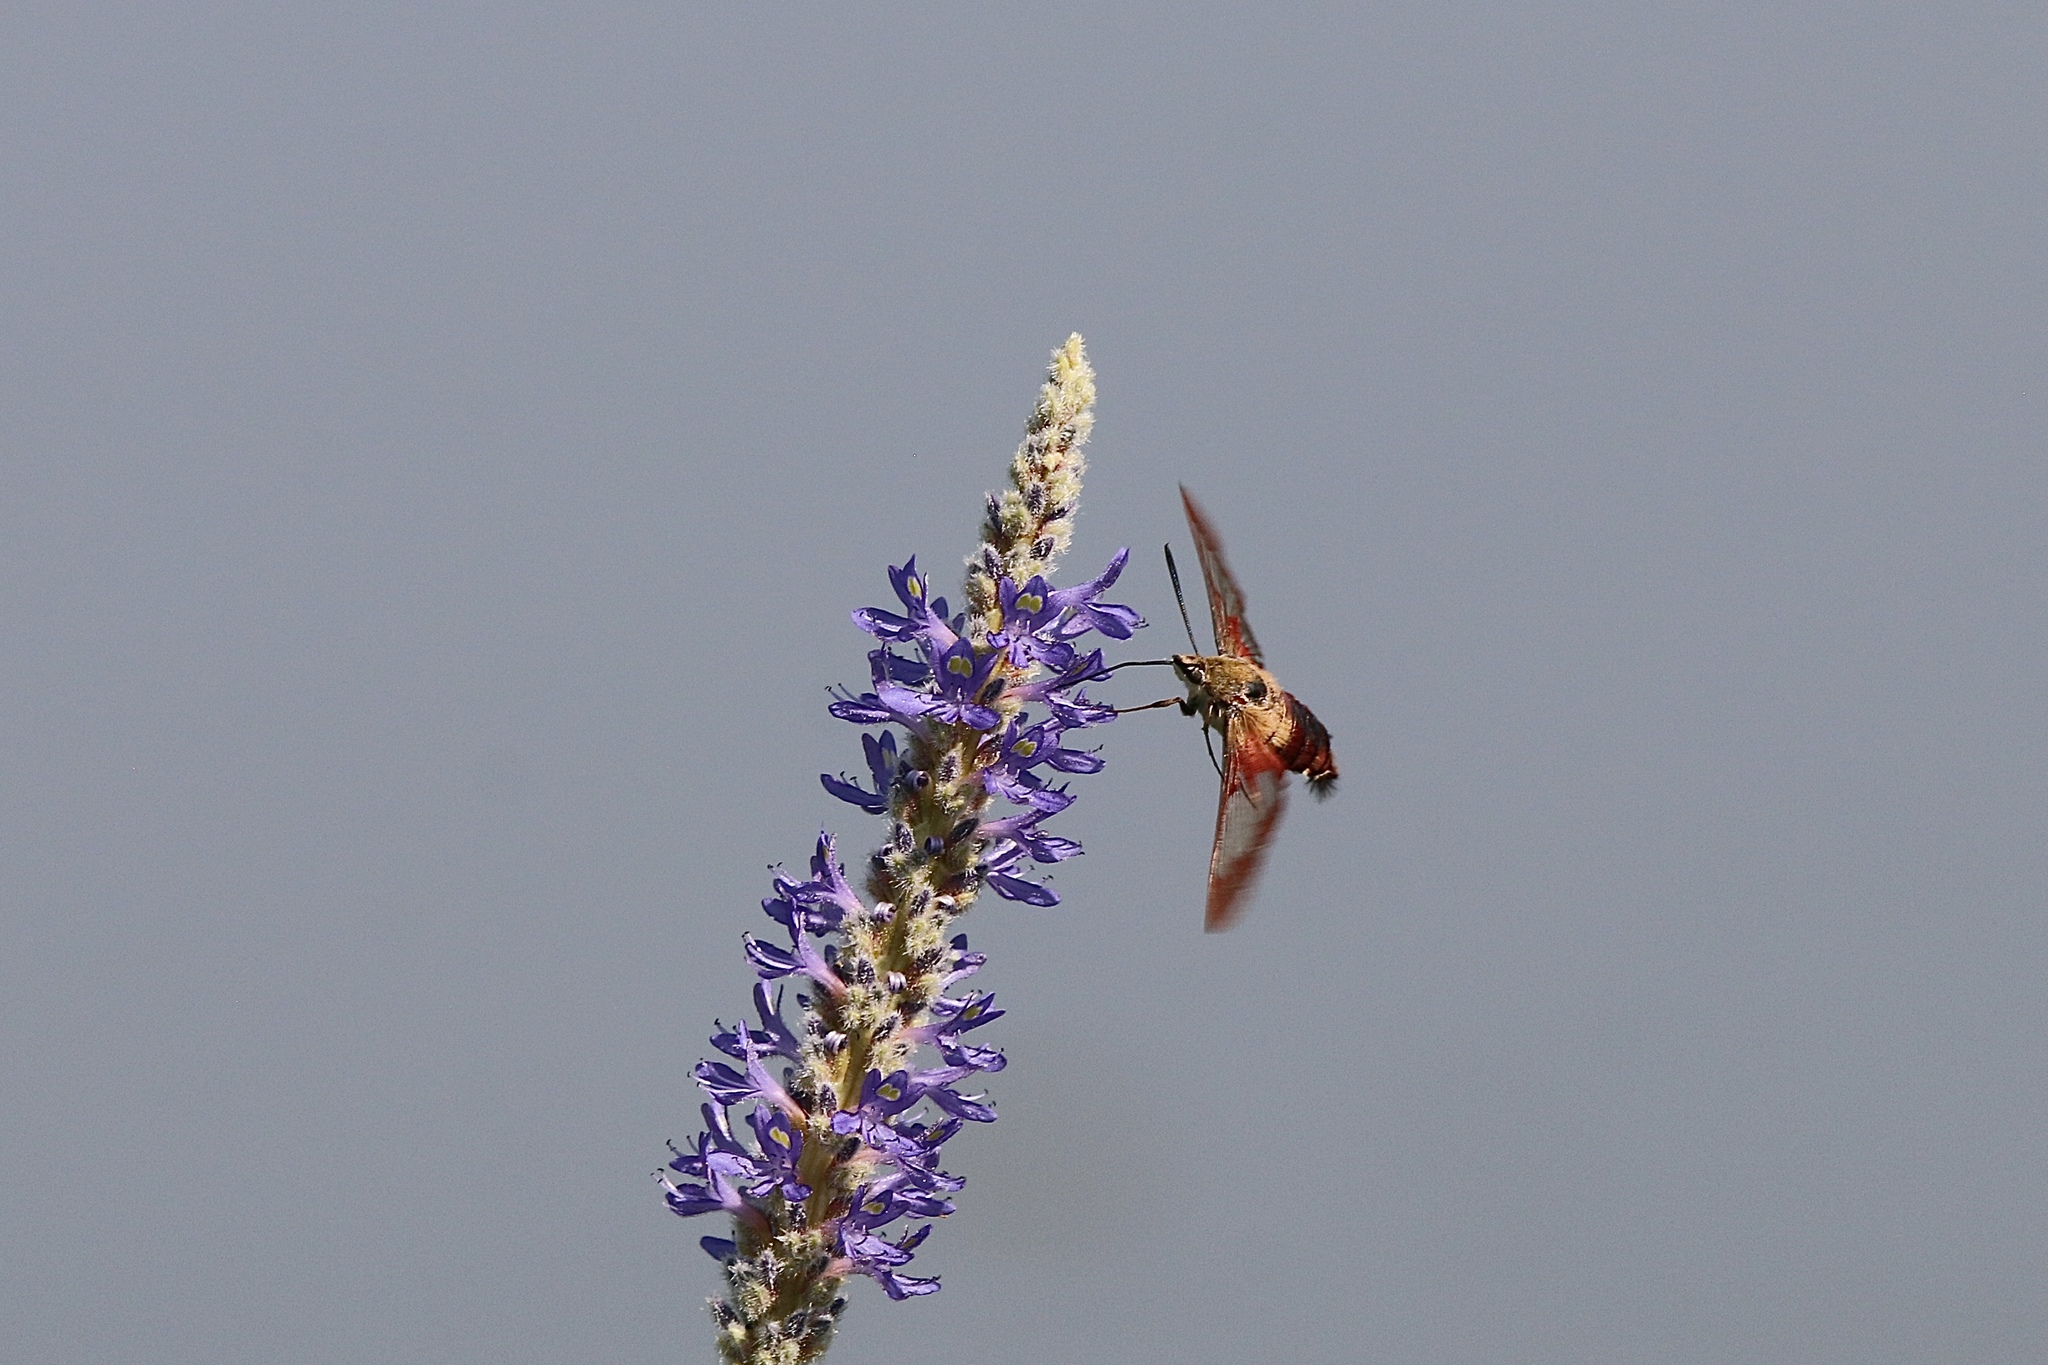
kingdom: Animalia
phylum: Arthropoda
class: Insecta
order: Lepidoptera
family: Sphingidae
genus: Hemaris
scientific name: Hemaris thysbe
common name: Common clear-wing
